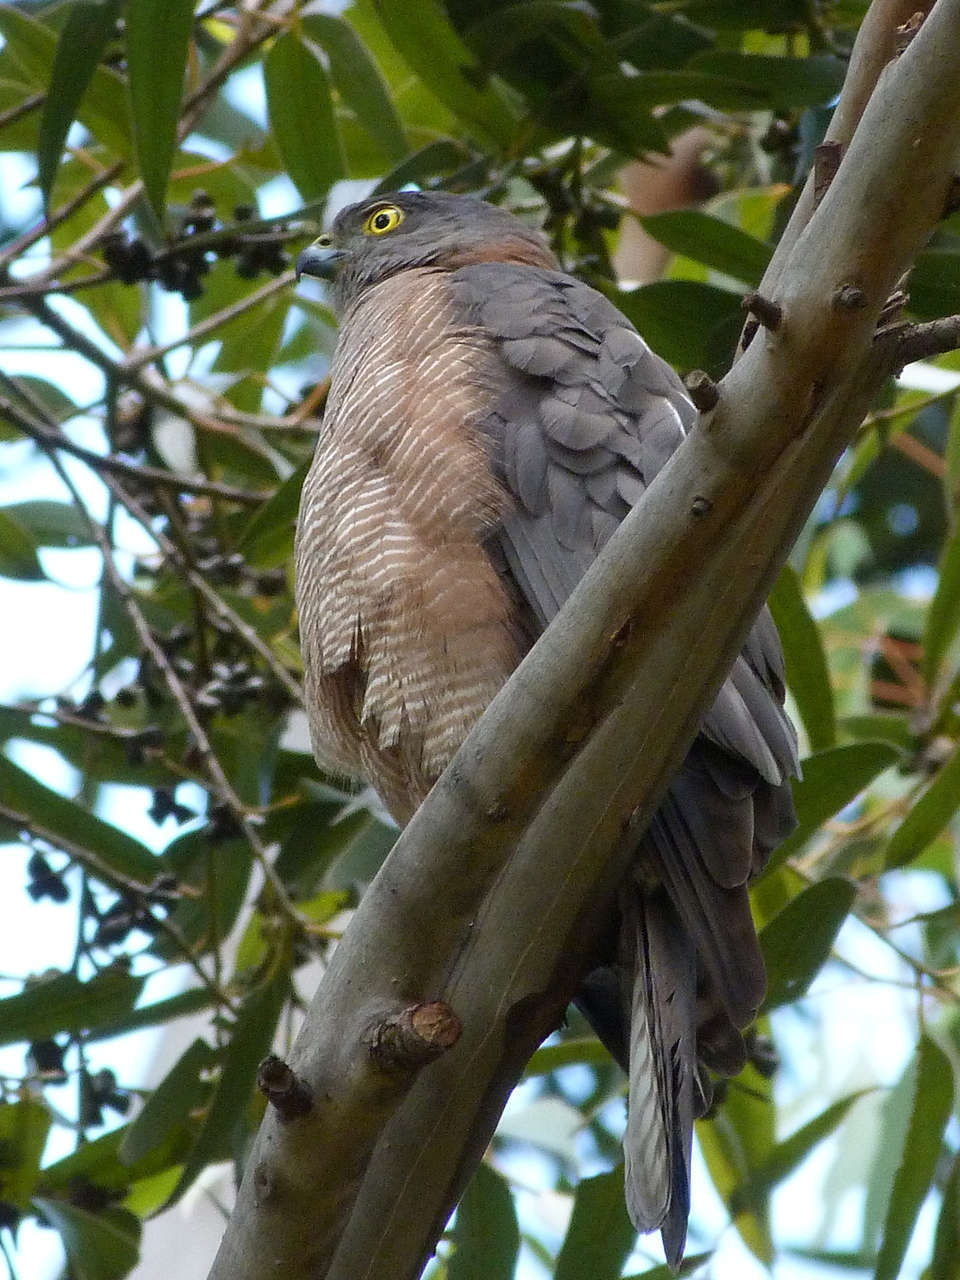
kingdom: Animalia
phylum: Chordata
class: Aves
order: Accipitriformes
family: Accipitridae
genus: Accipiter
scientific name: Accipiter fasciatus
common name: Brown goshawk
